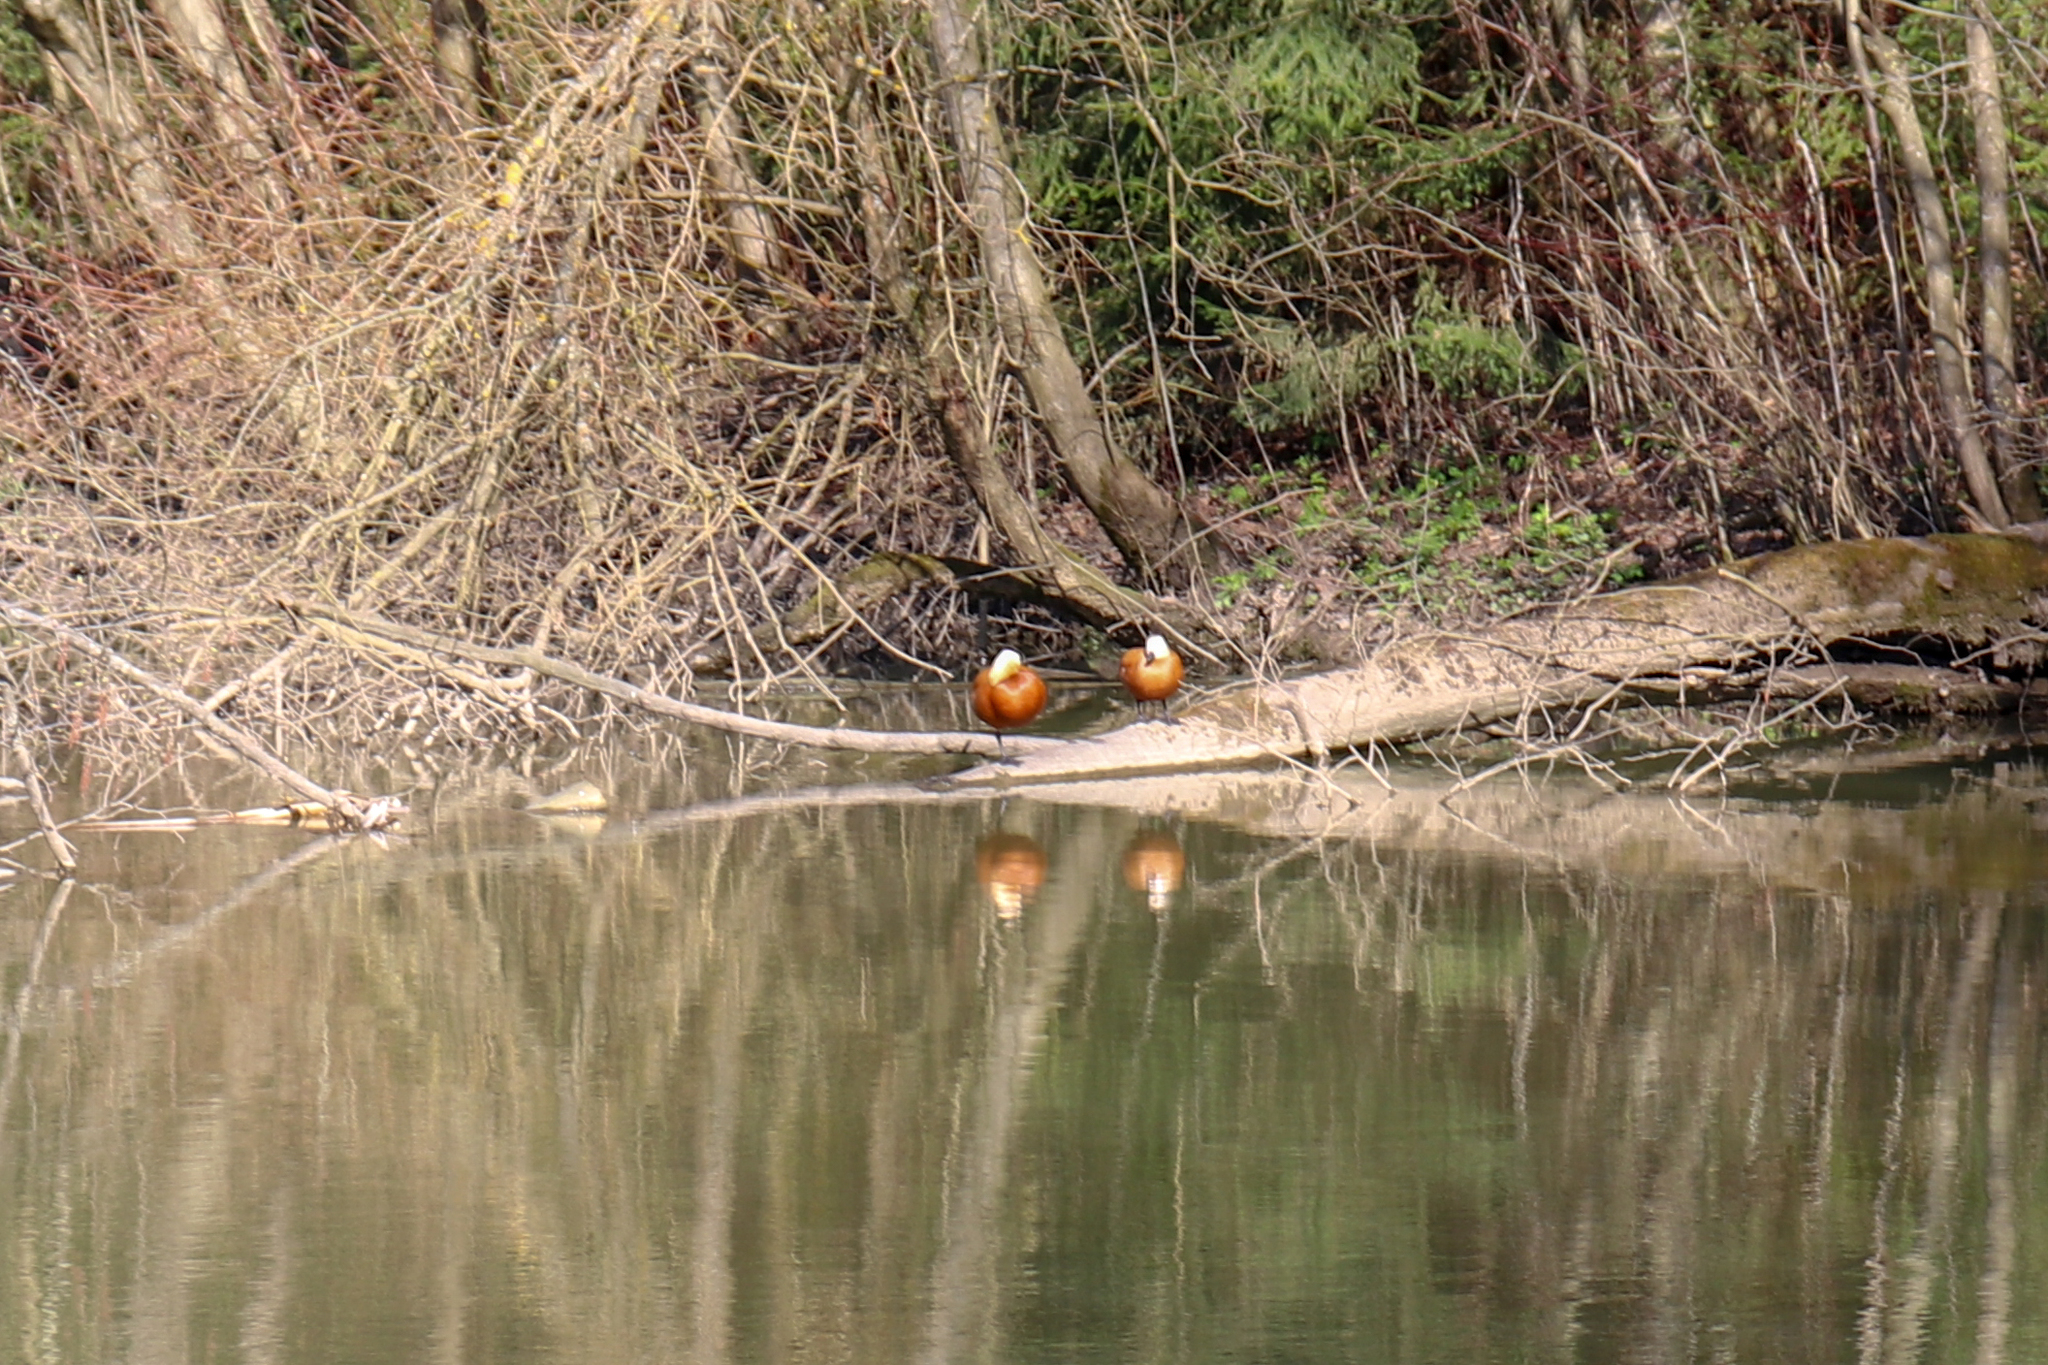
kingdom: Animalia
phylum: Chordata
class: Aves
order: Anseriformes
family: Anatidae
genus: Tadorna
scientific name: Tadorna ferruginea
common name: Ruddy shelduck
